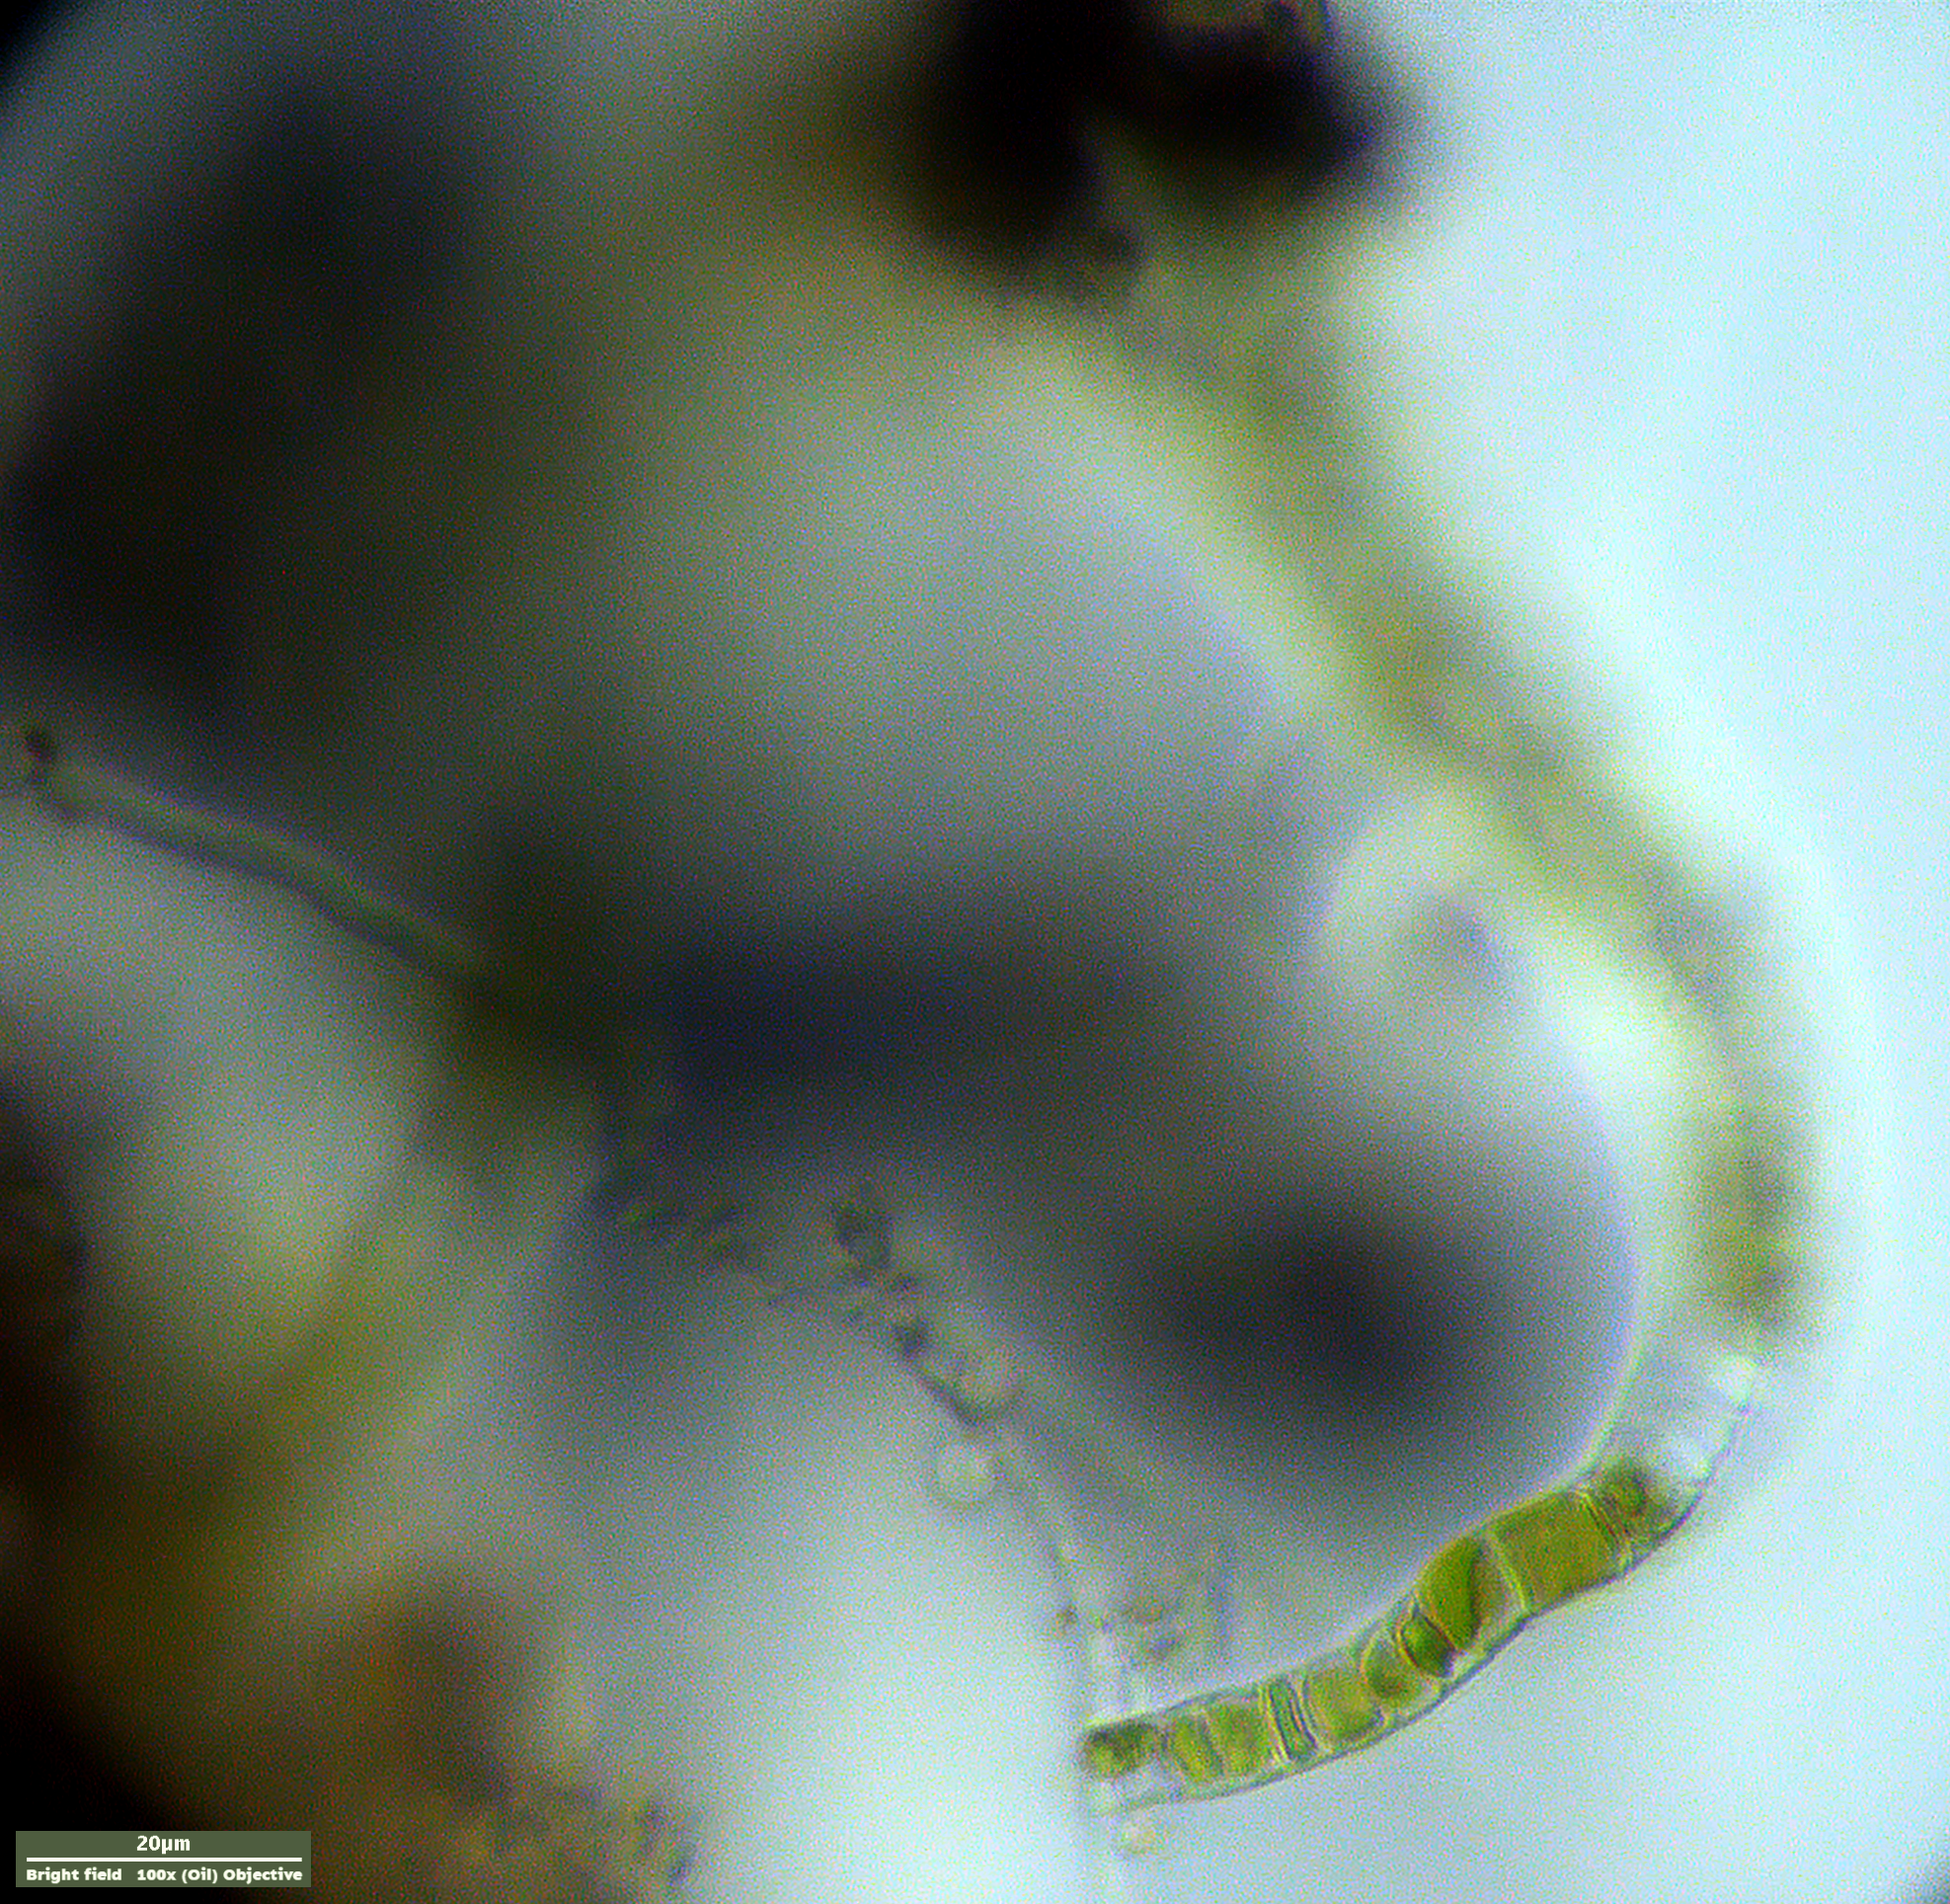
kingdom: Plantae
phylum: Charophyta
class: Klebsormidiophyceae
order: Klebsormidiales
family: Klebsormidiaceae
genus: Klebsormidium
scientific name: Klebsormidium
